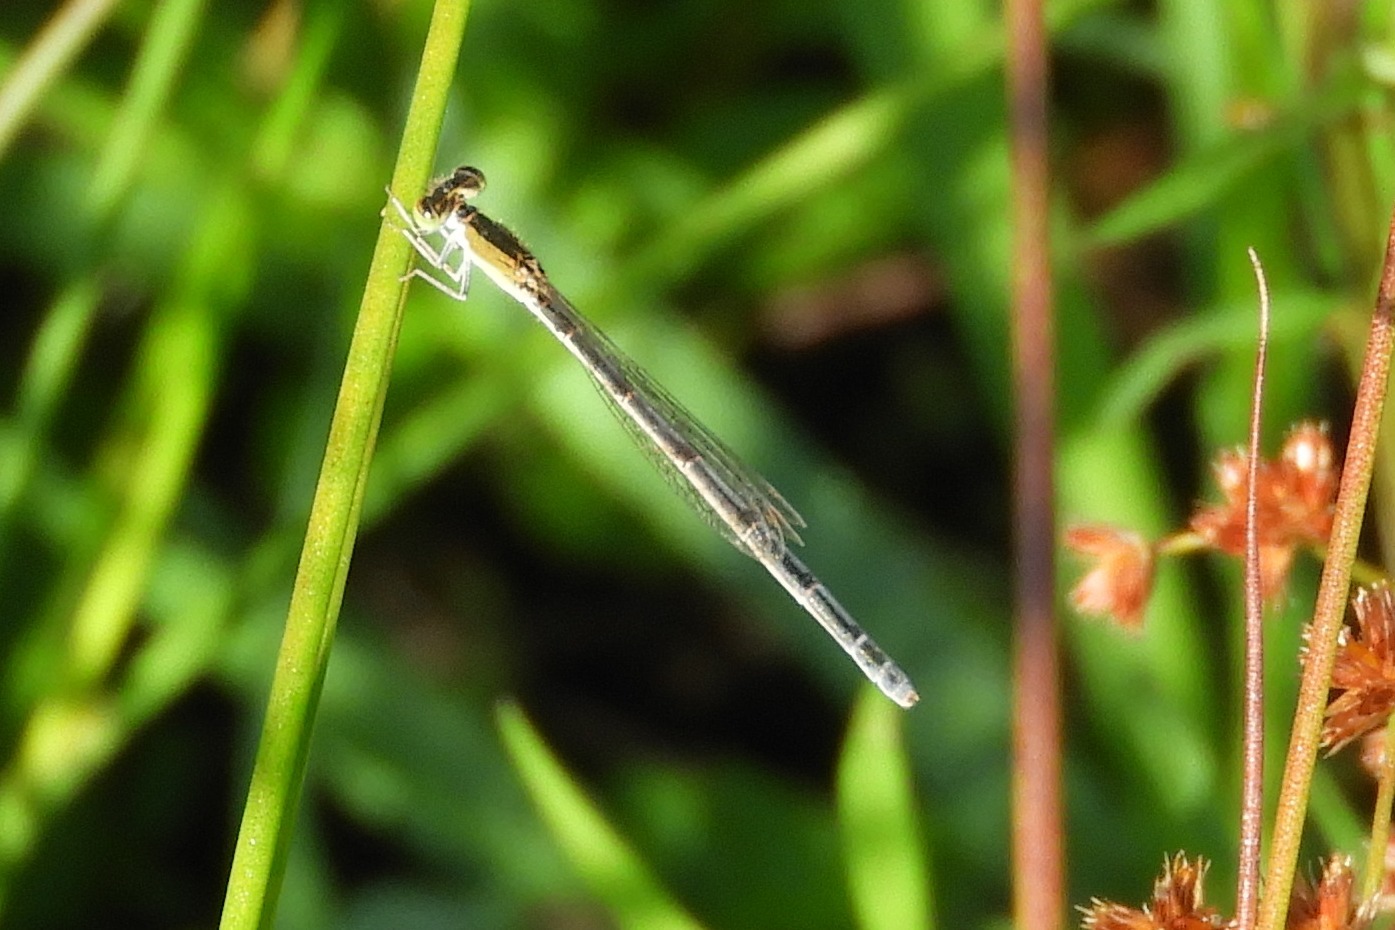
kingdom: Animalia
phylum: Arthropoda
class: Insecta
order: Odonata
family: Coenagrionidae
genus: Ischnura
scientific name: Ischnura hastata
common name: Citrine forktail
